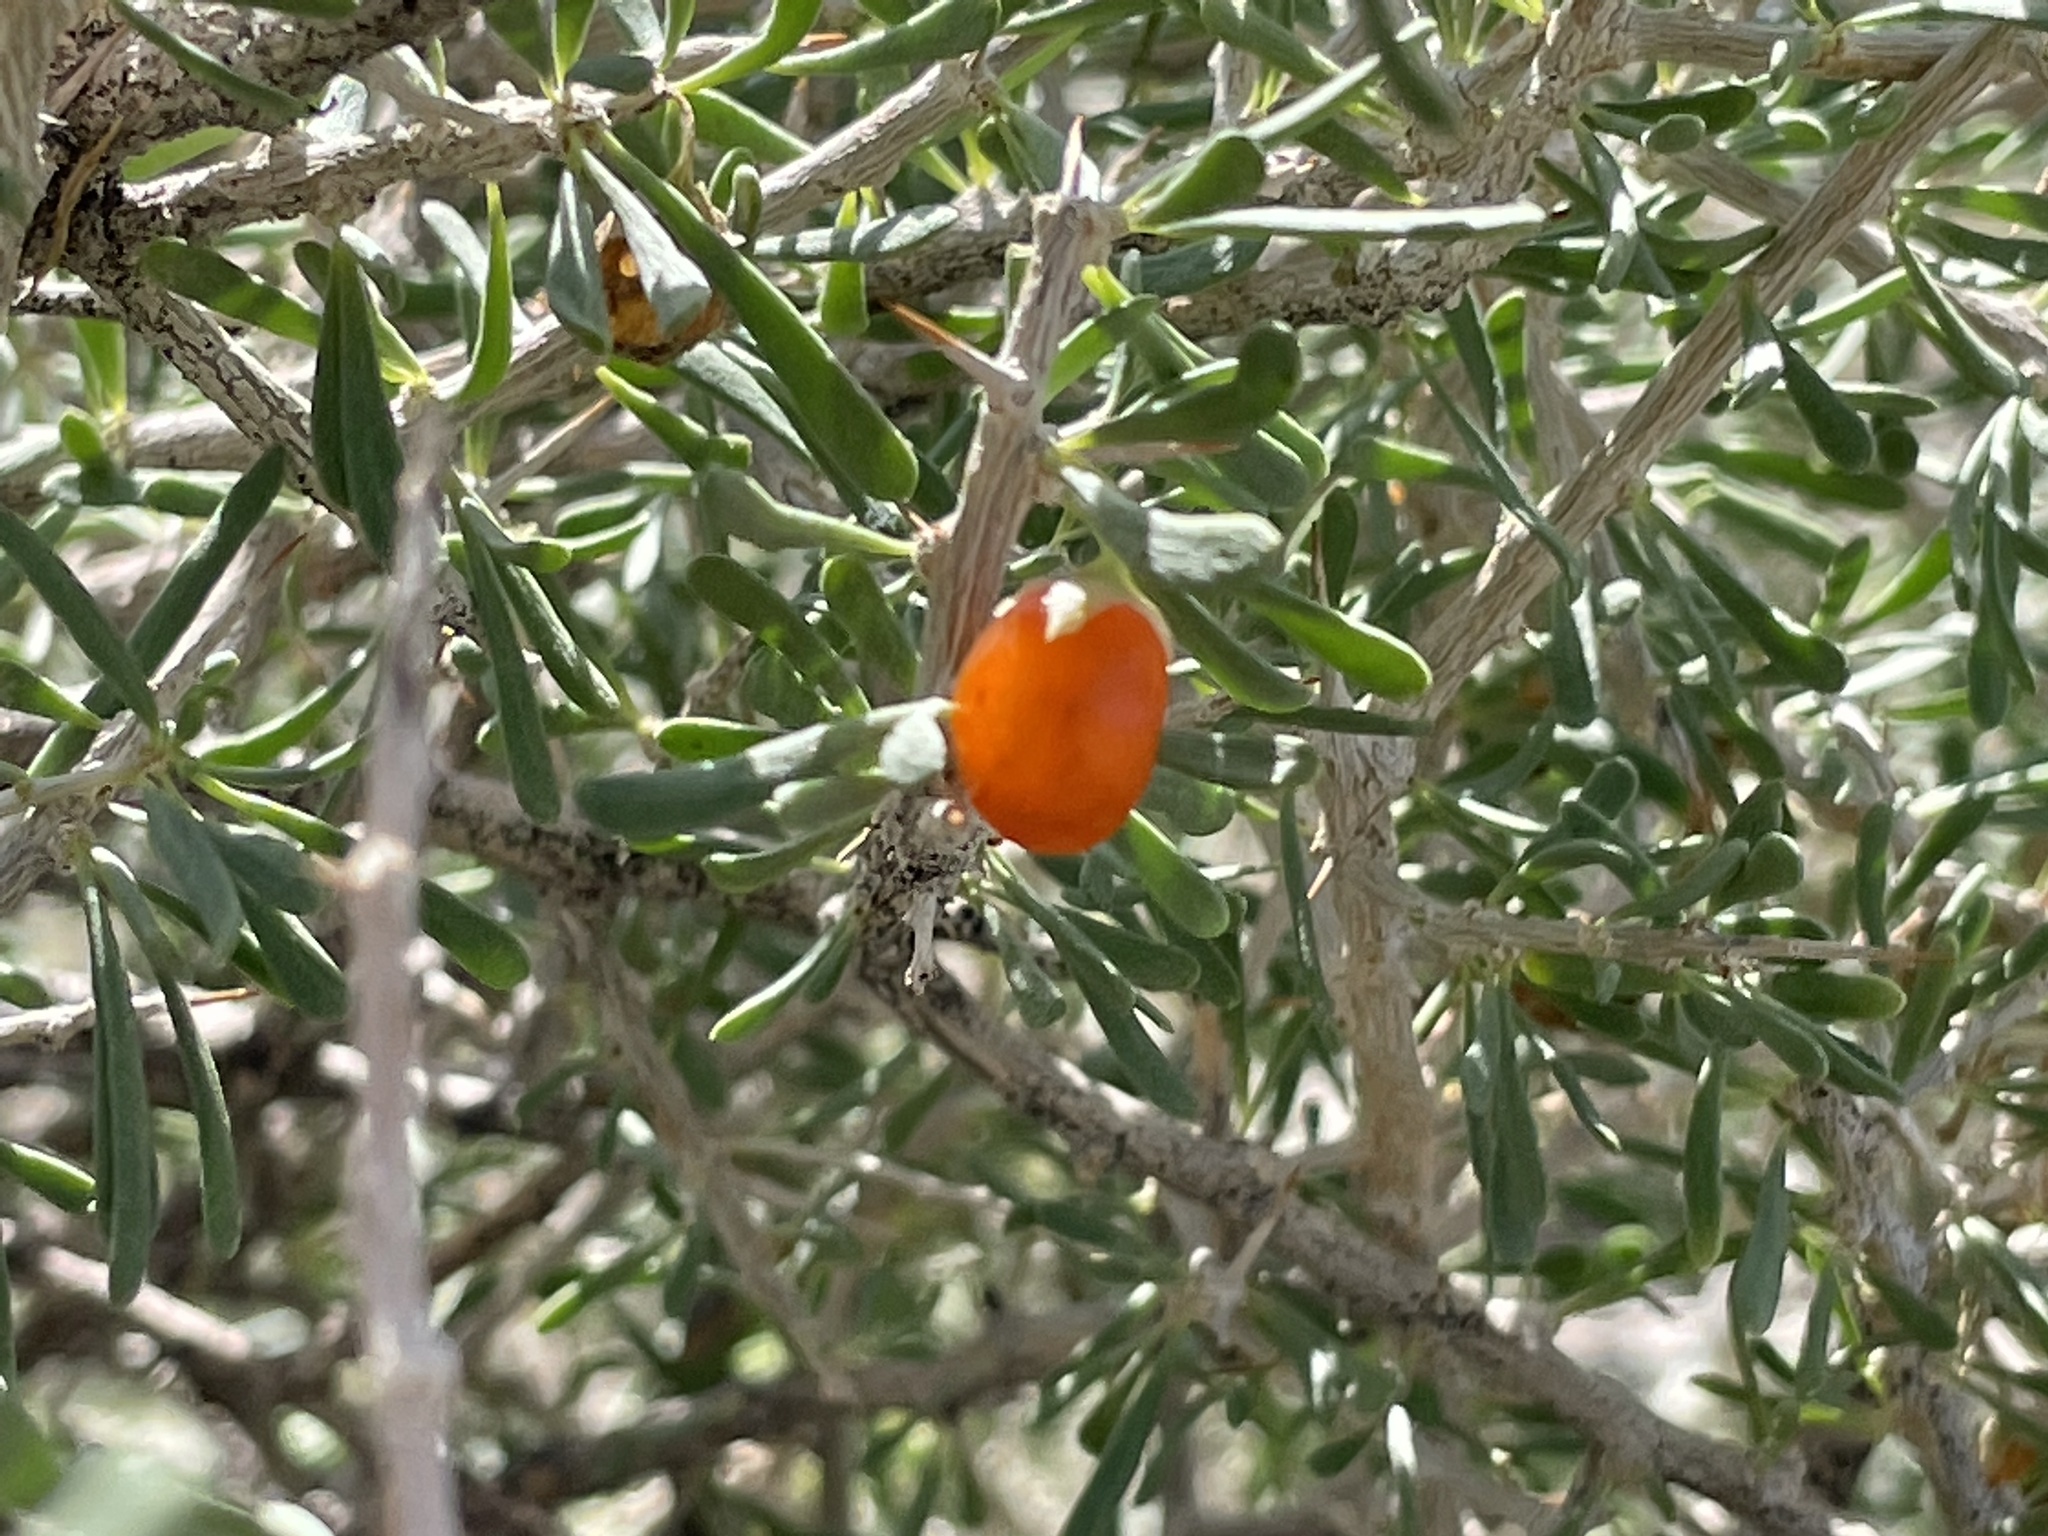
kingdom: Plantae
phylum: Tracheophyta
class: Magnoliopsida
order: Solanales
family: Solanaceae
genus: Lycium
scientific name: Lycium andersonii
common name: Water-jacket
